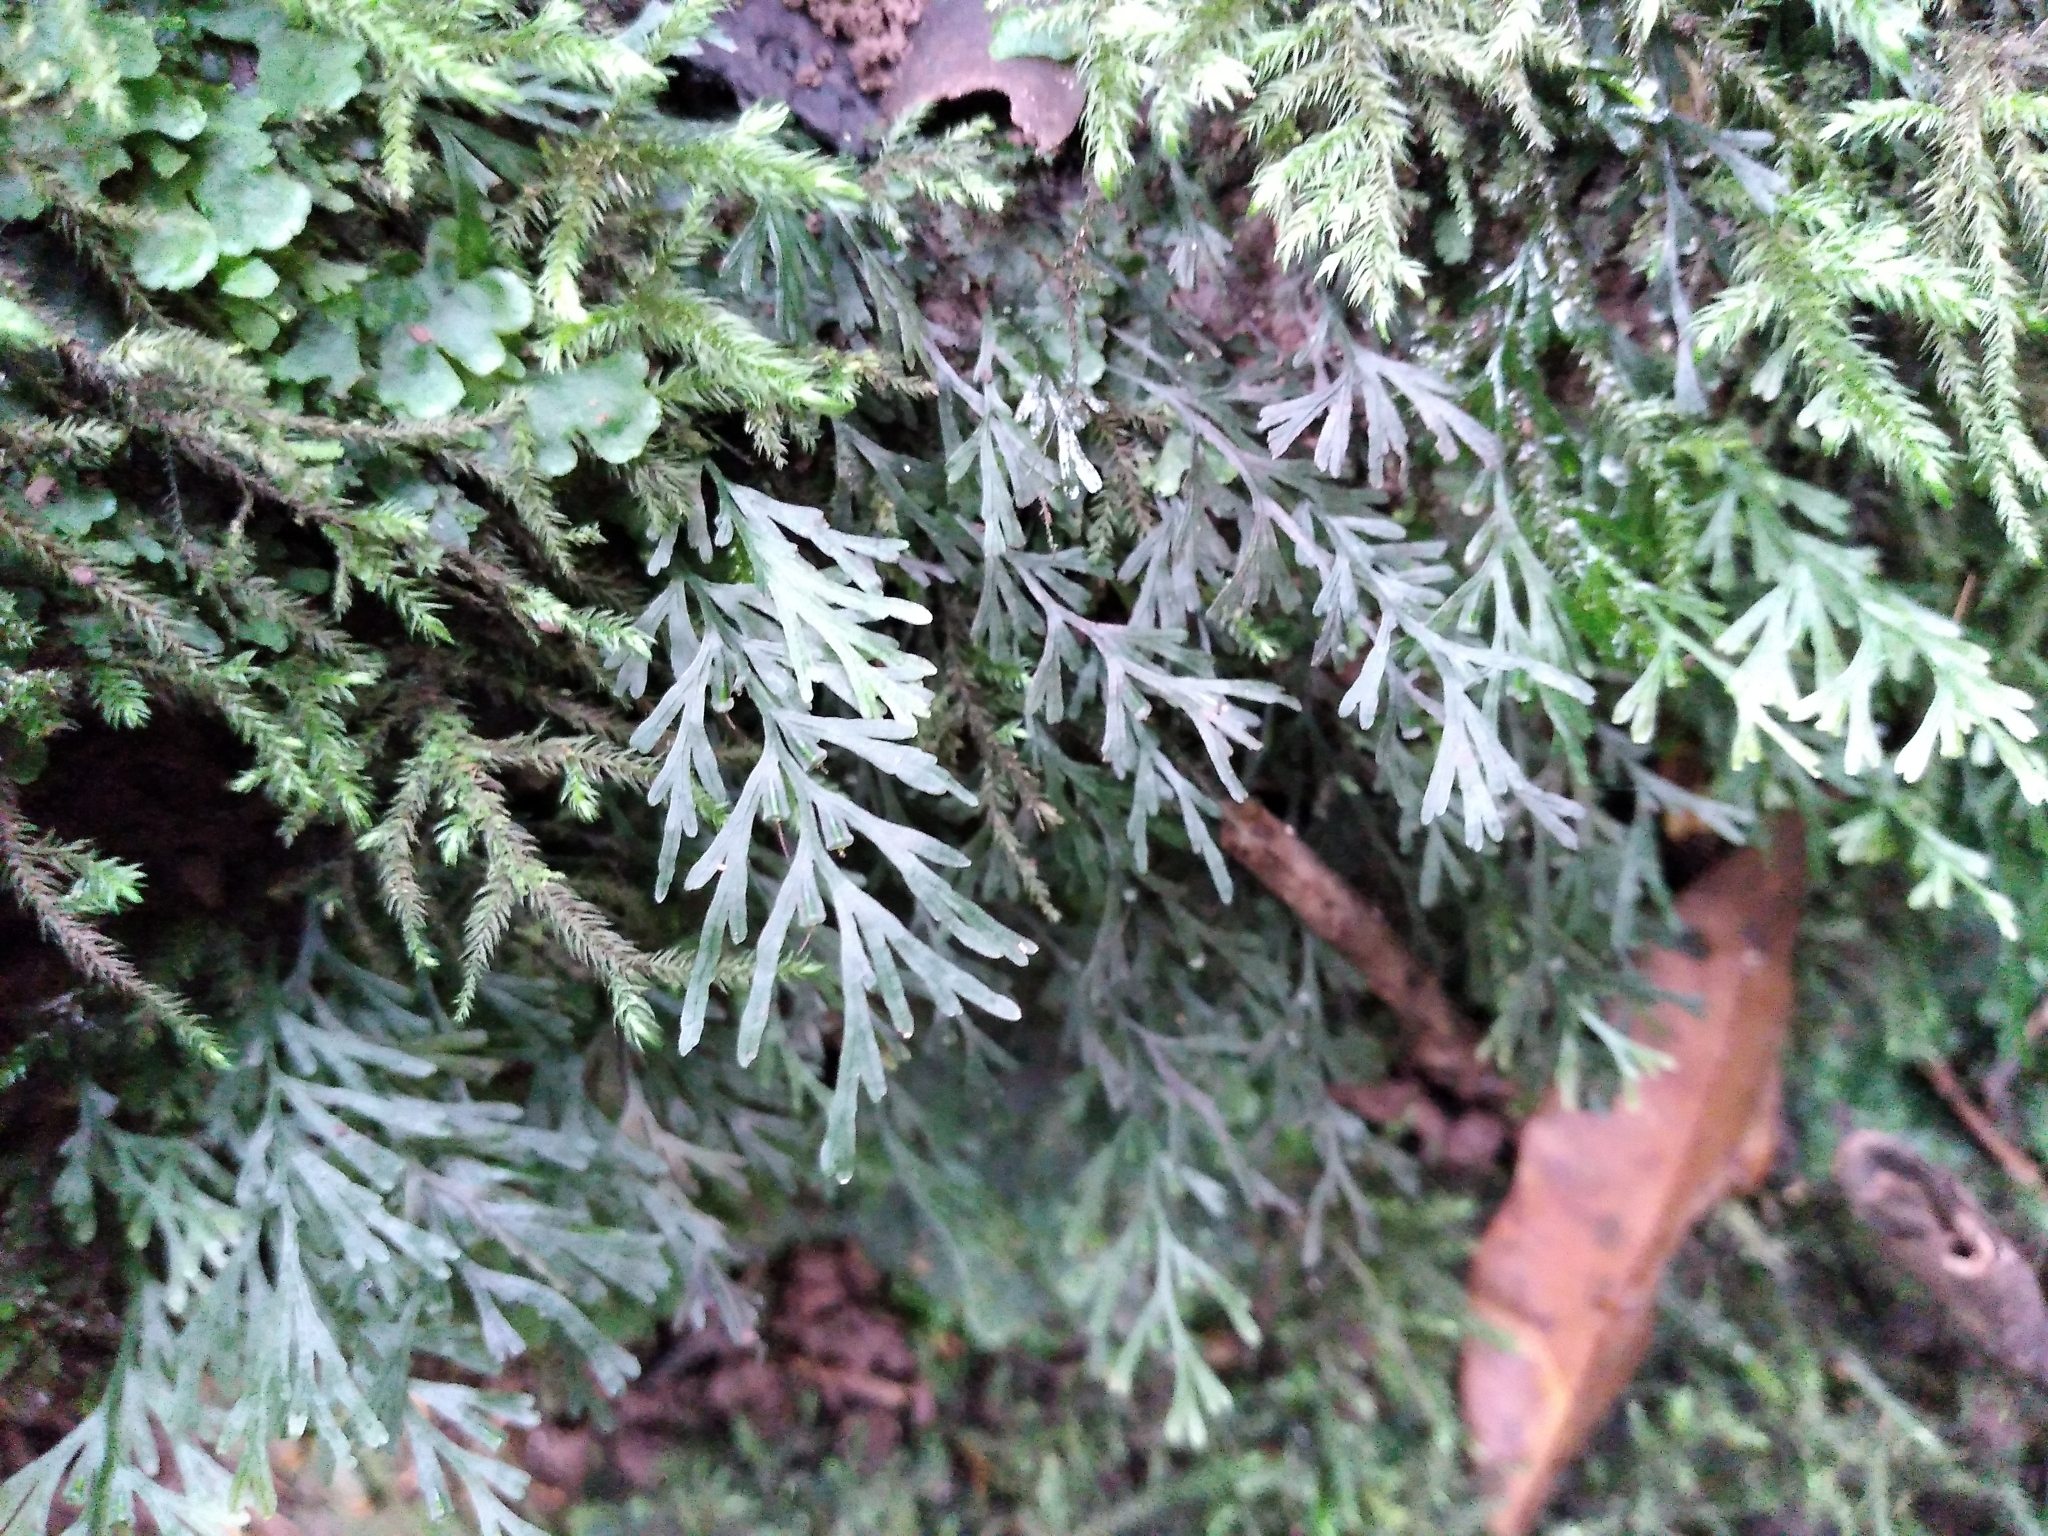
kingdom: Plantae
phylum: Tracheophyta
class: Polypodiopsida
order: Hymenophyllales
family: Hymenophyllaceae
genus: Polyphlebium
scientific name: Polyphlebium endlicherianum
